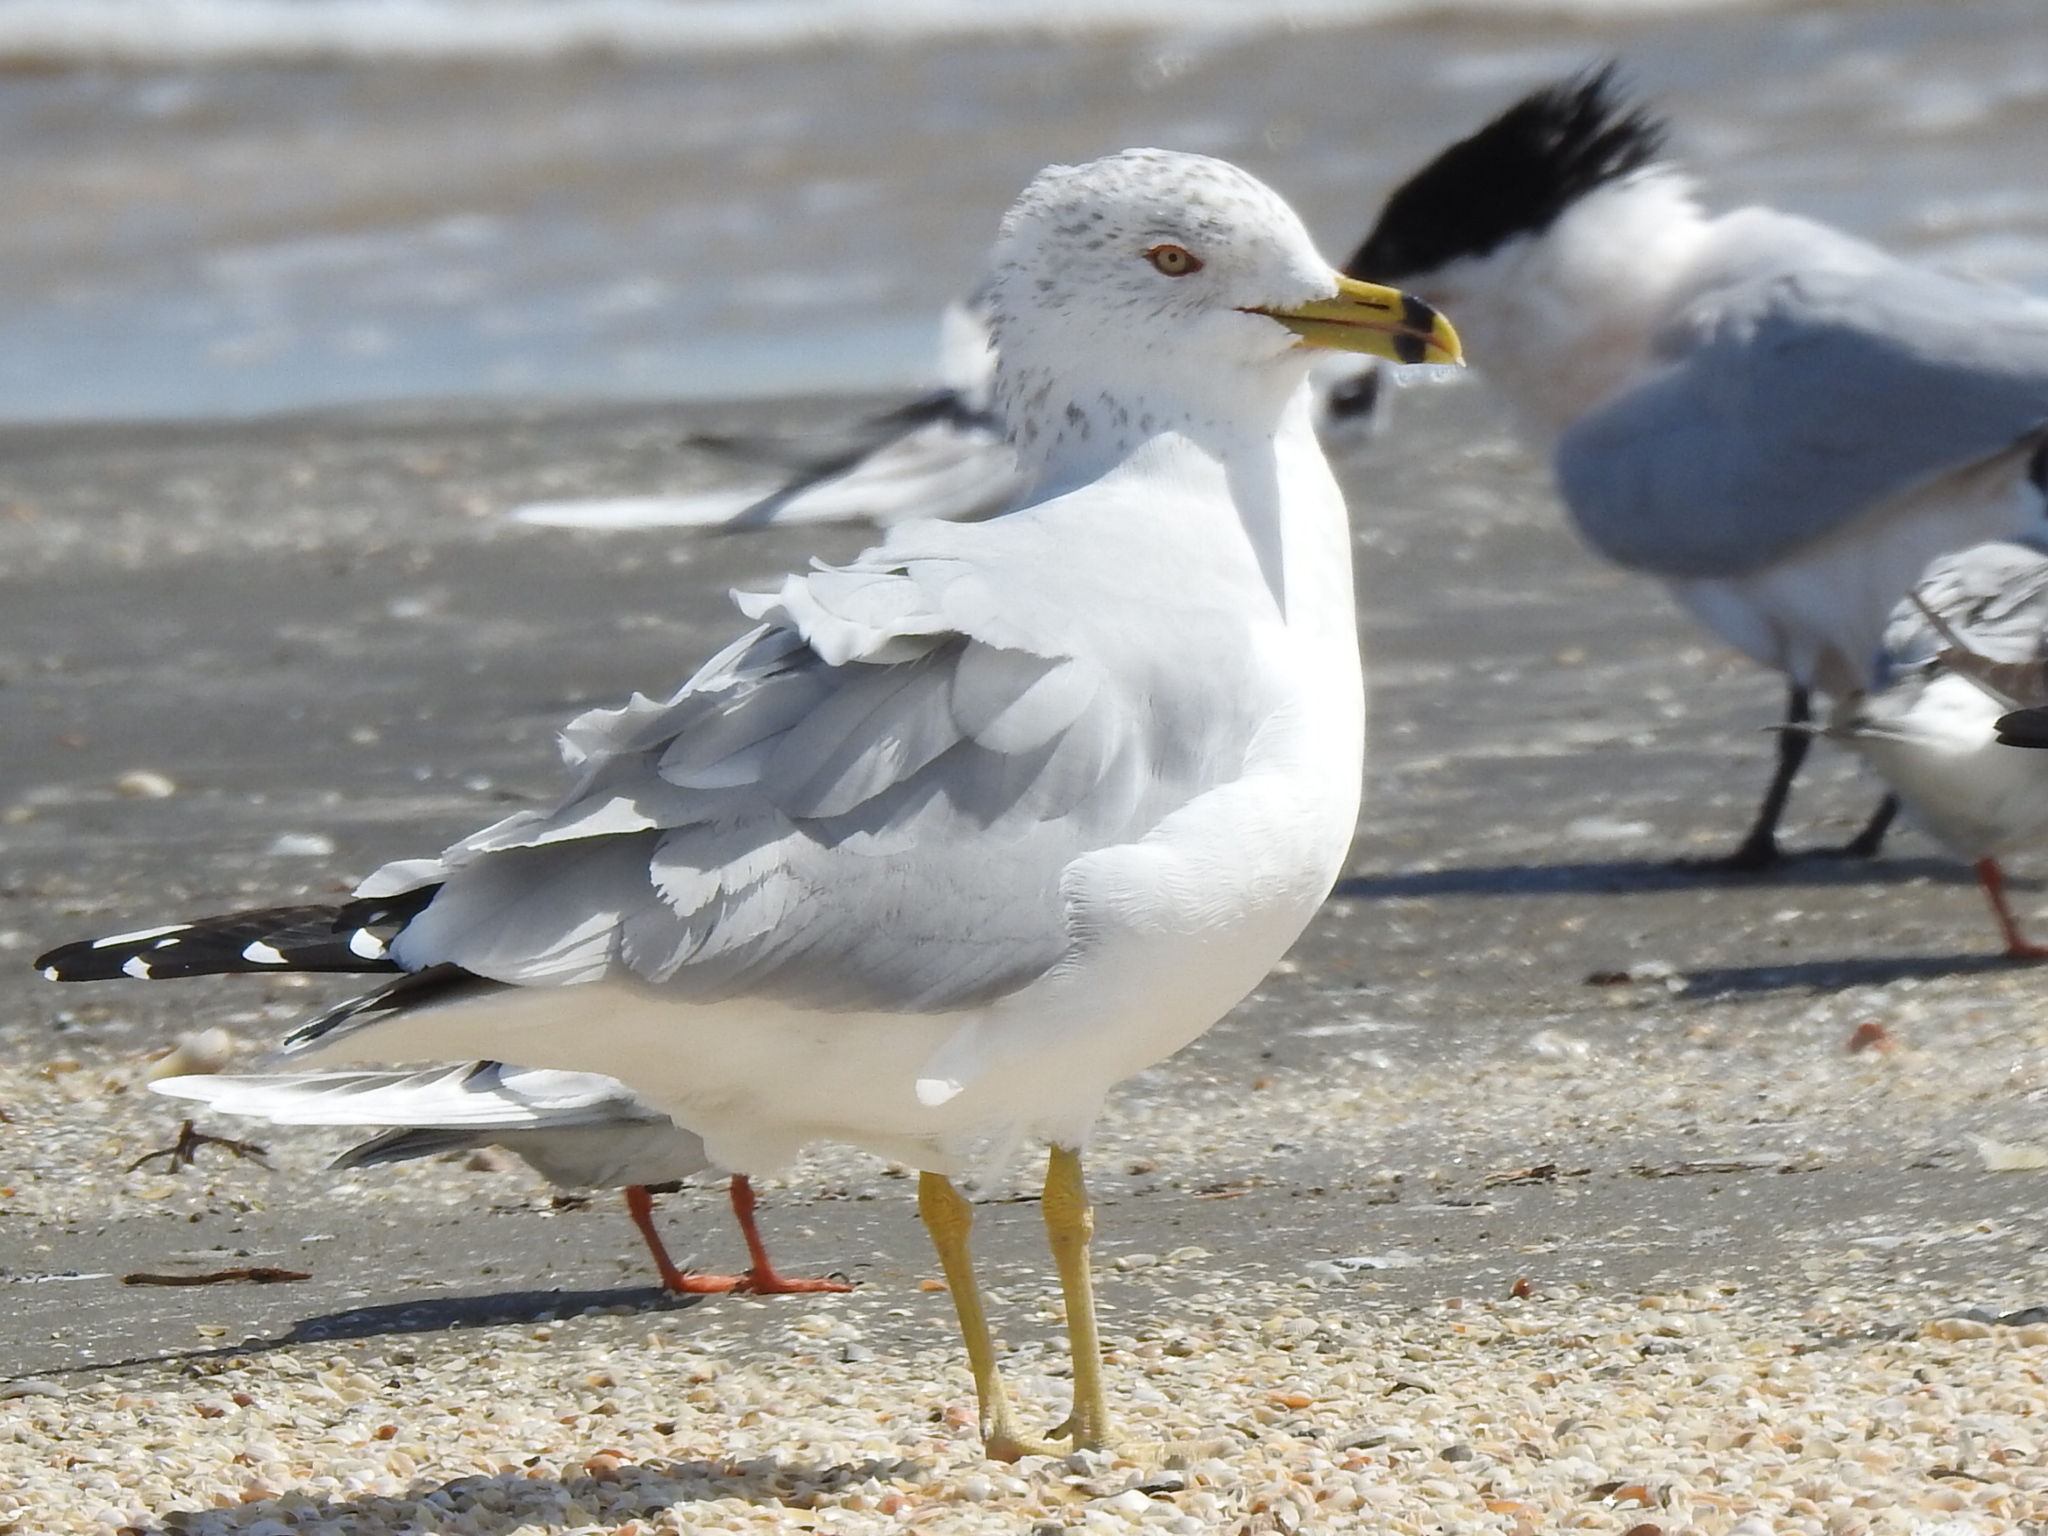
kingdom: Animalia
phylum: Chordata
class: Aves
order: Charadriiformes
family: Laridae
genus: Larus
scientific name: Larus delawarensis
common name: Ring-billed gull
